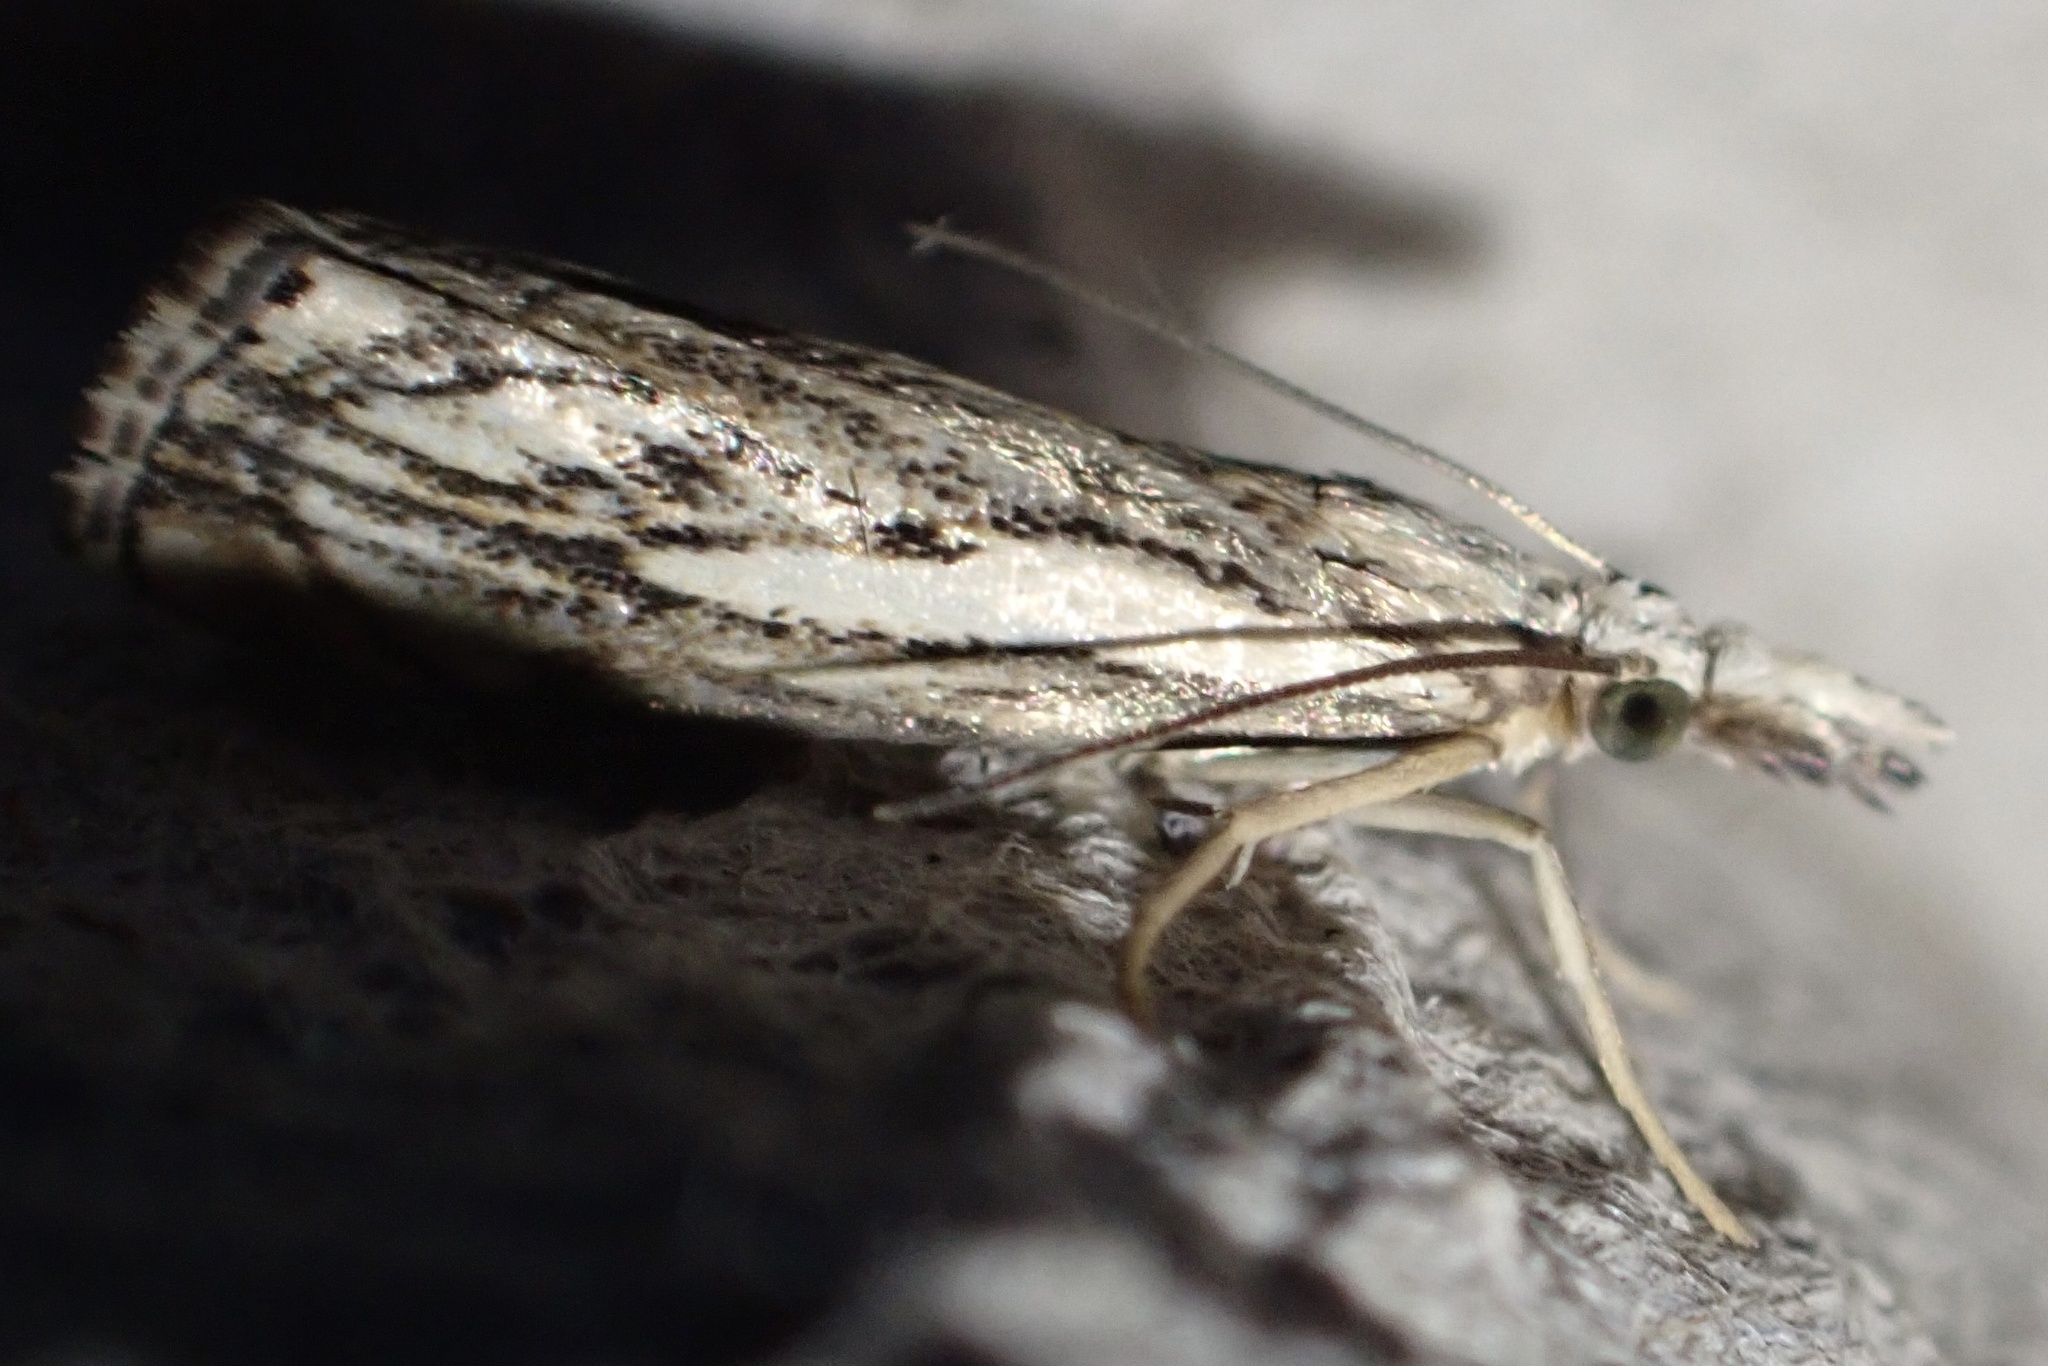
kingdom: Animalia
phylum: Arthropoda
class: Insecta
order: Lepidoptera
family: Crambidae
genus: Catoptria
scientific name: Catoptria falsella
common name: Chequered grass-veneer
